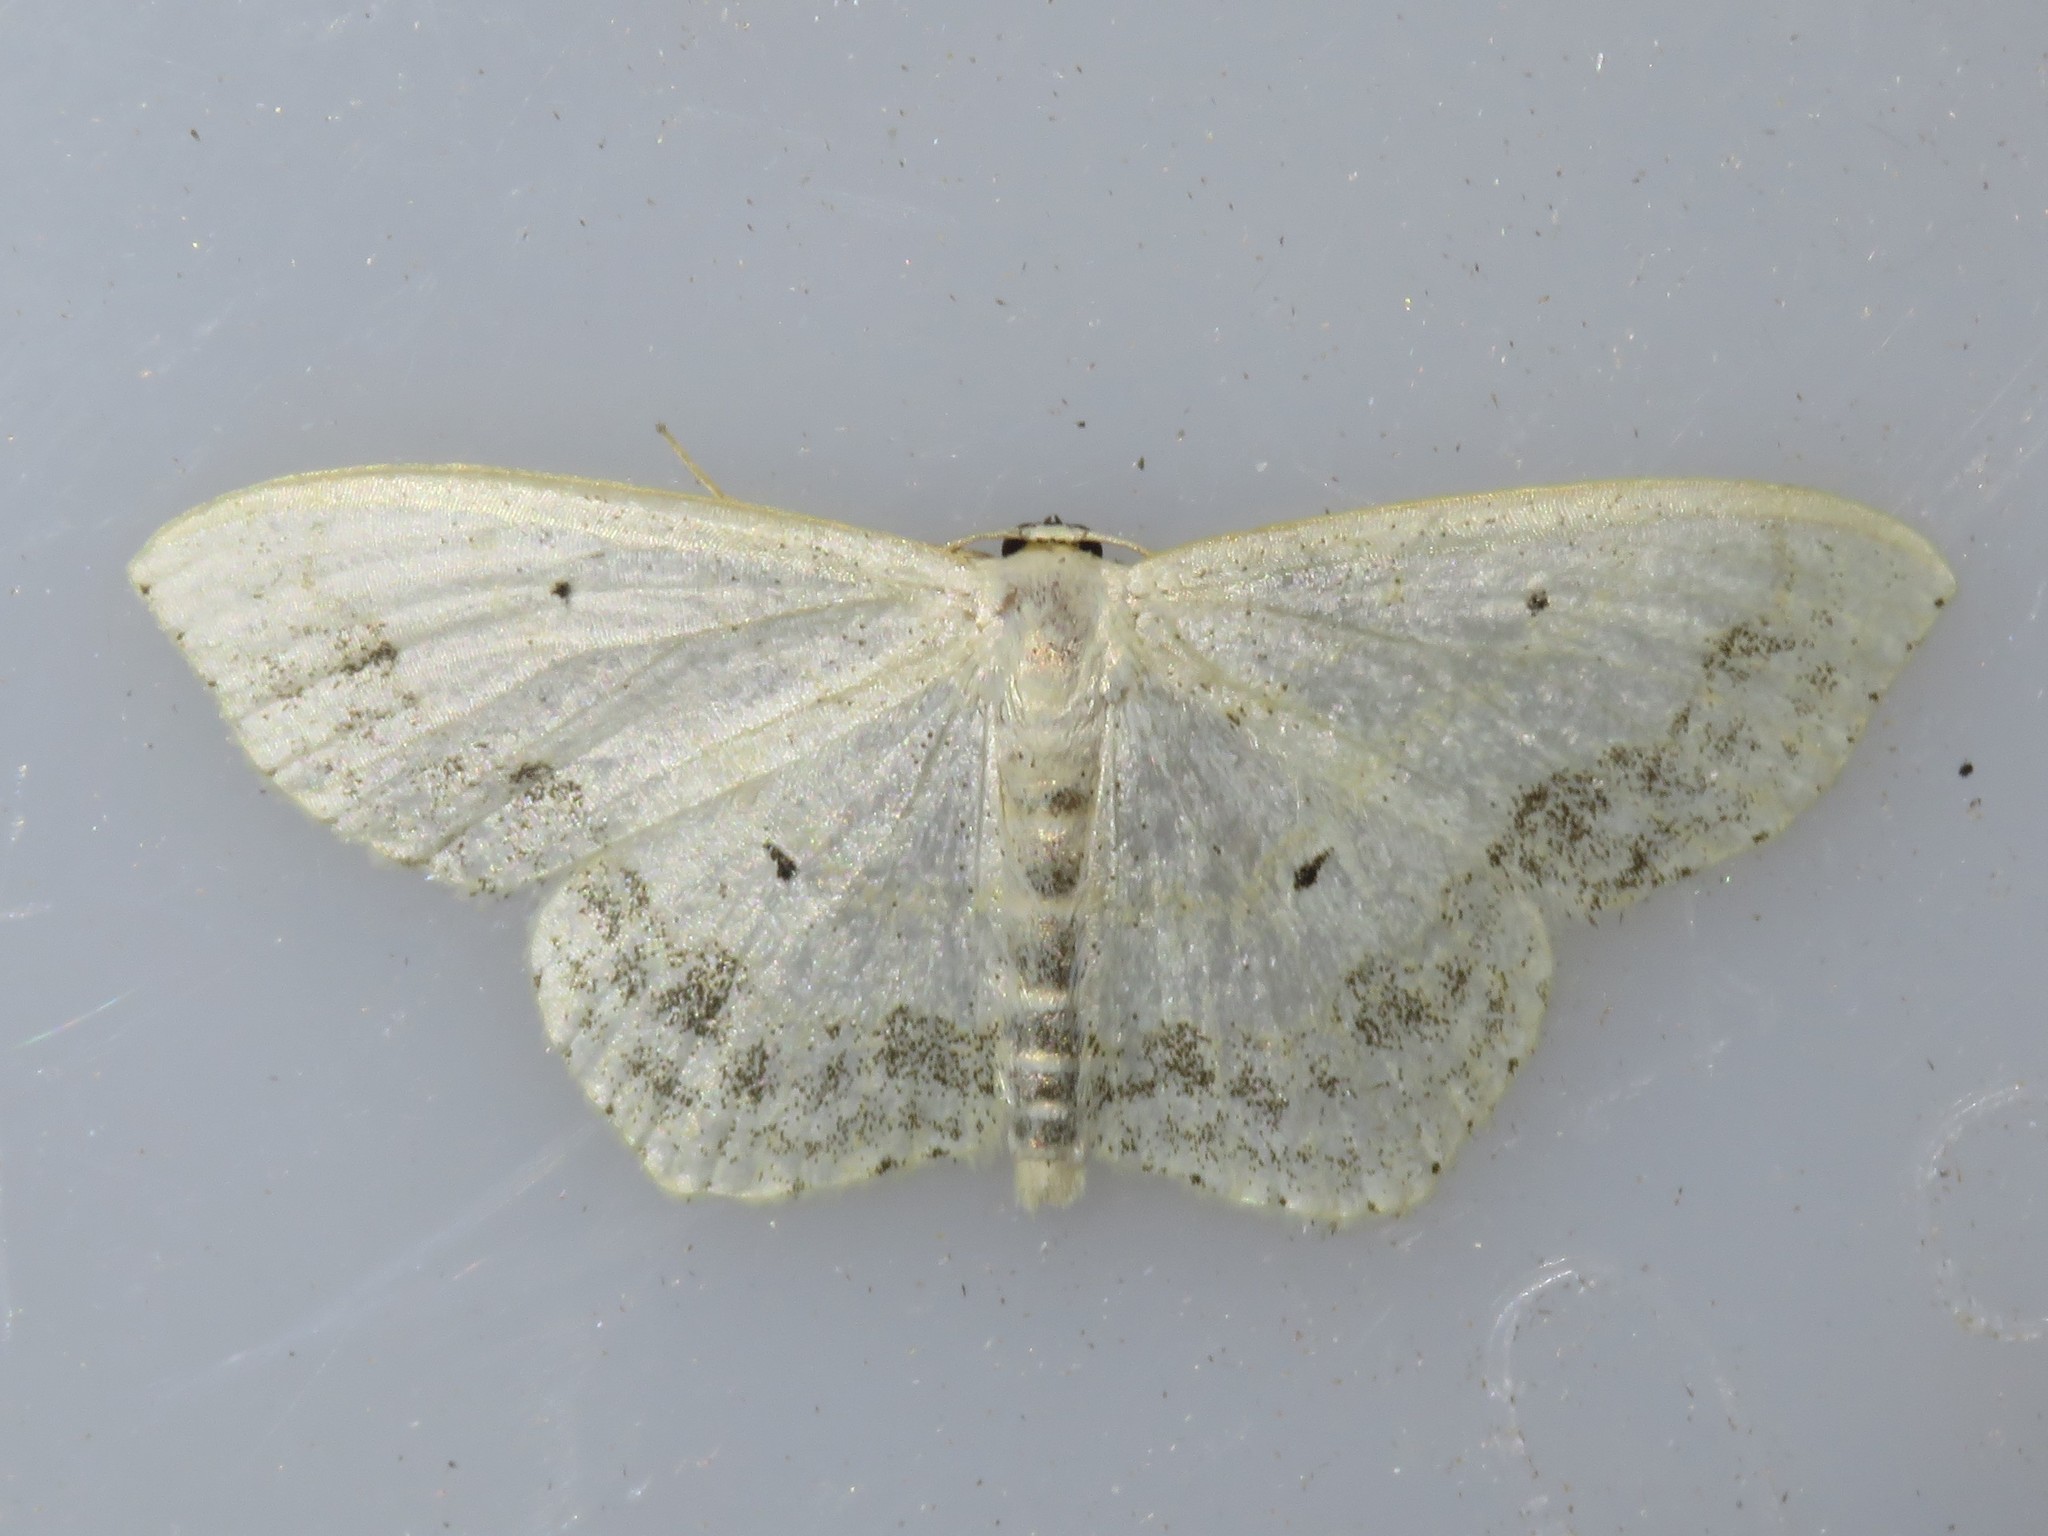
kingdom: Animalia
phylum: Arthropoda
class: Insecta
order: Lepidoptera
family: Geometridae
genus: Scopula
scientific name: Scopula limboundata
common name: Large lace border
